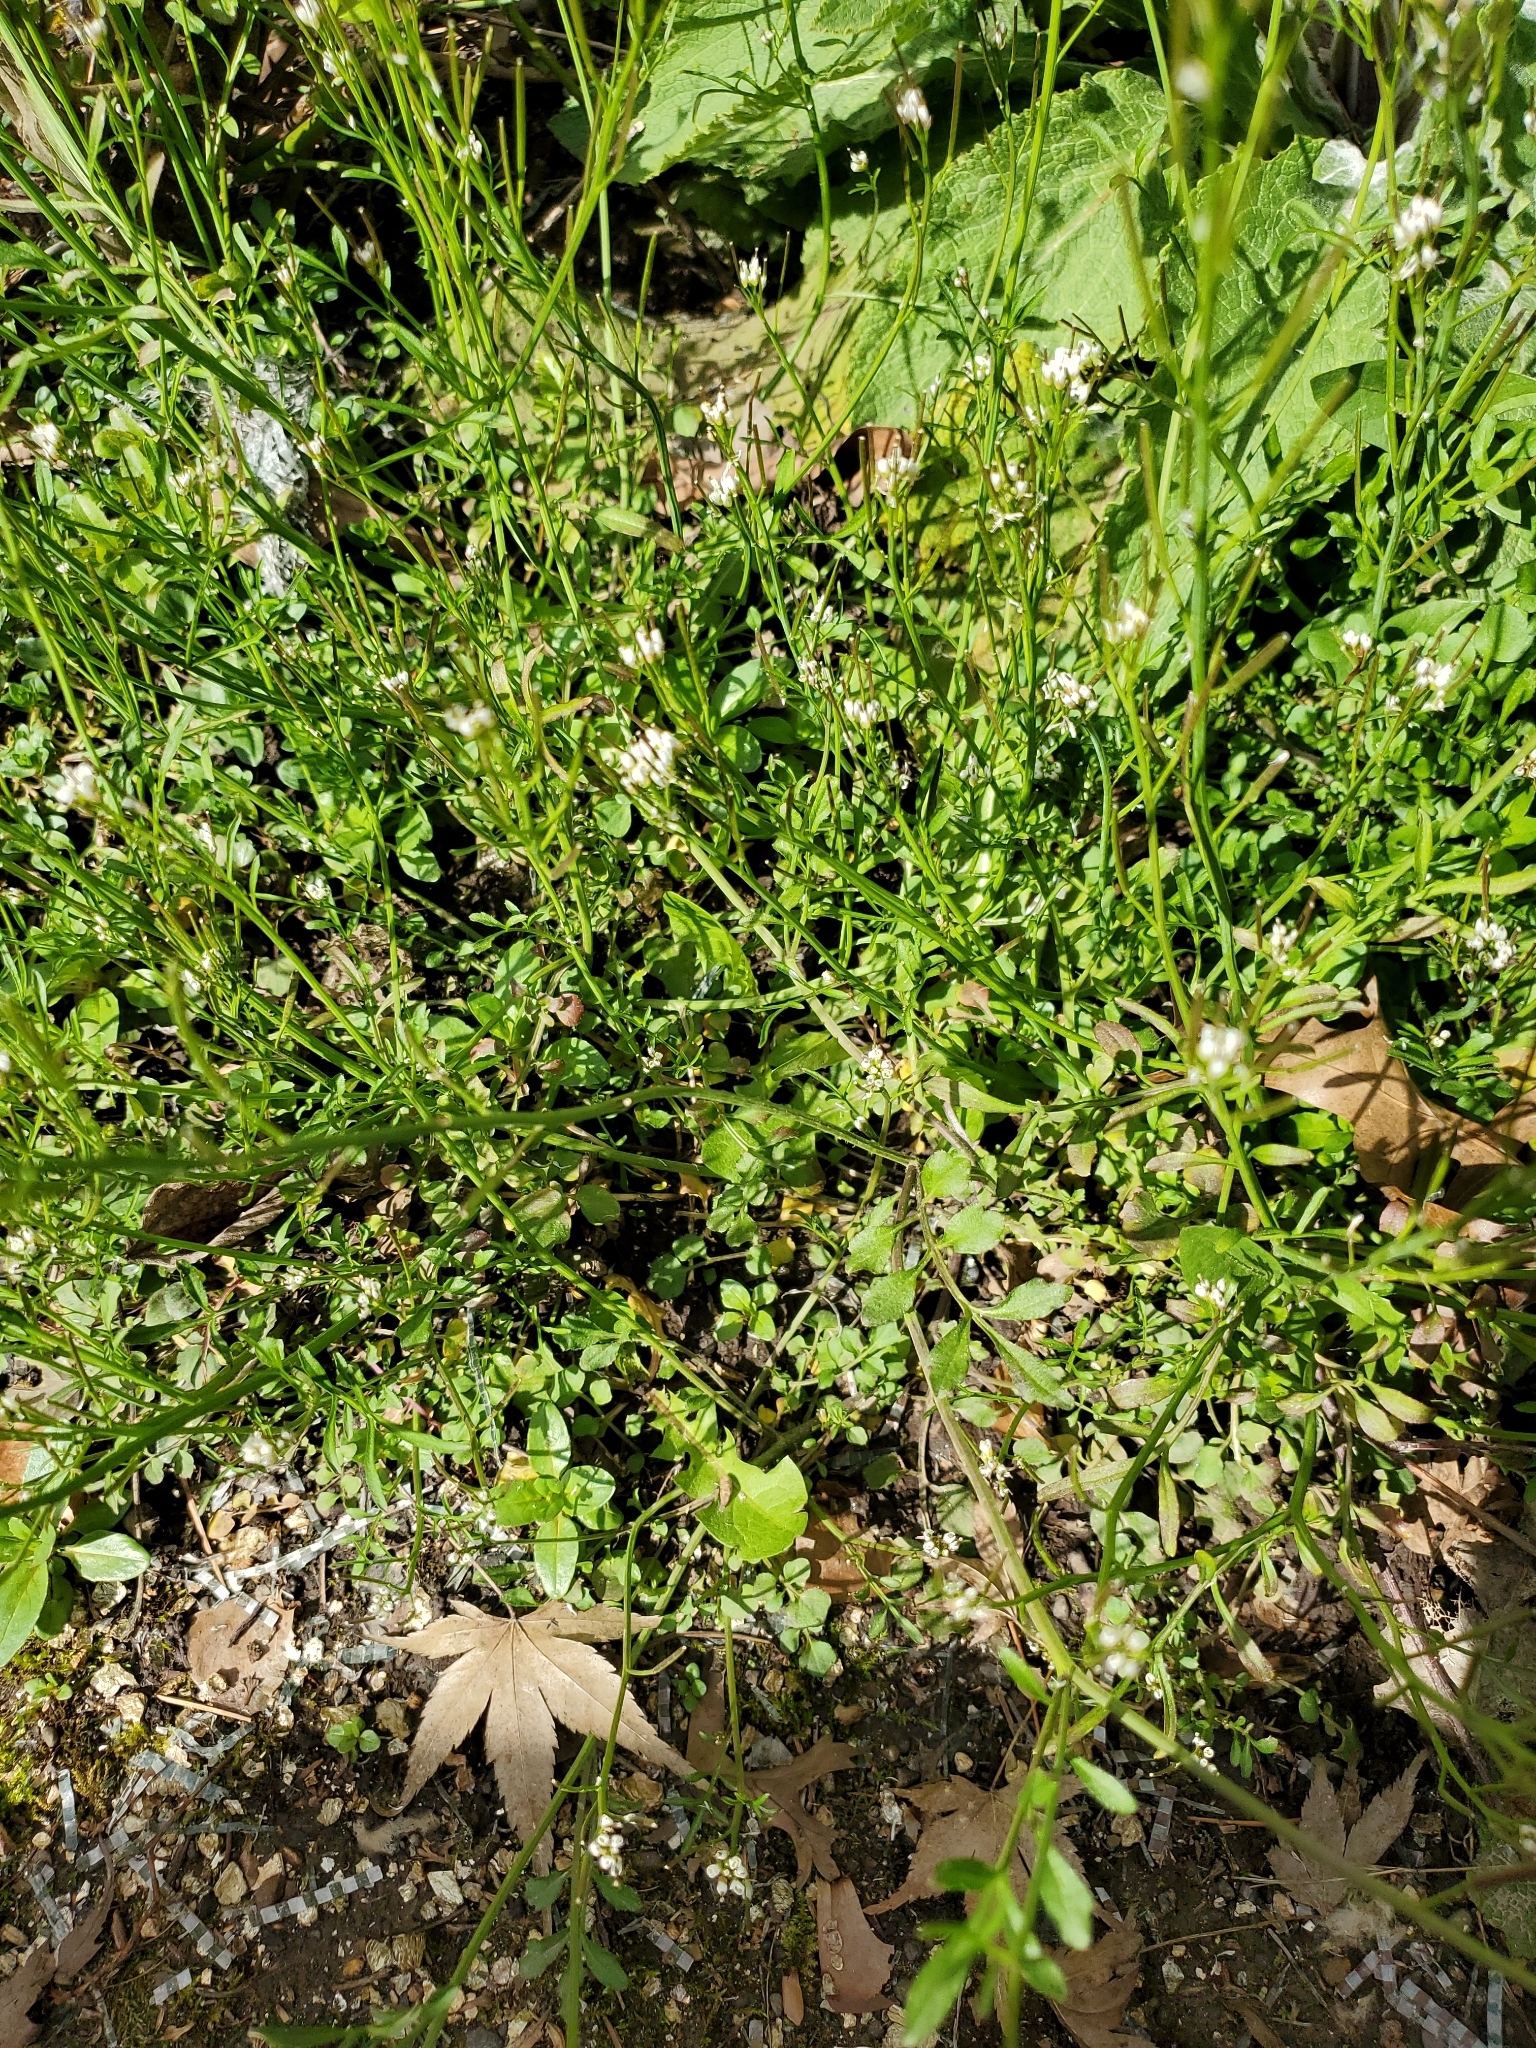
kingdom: Plantae
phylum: Tracheophyta
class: Magnoliopsida
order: Brassicales
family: Brassicaceae
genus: Cardamine
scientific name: Cardamine hirsuta
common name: Hairy bittercress
